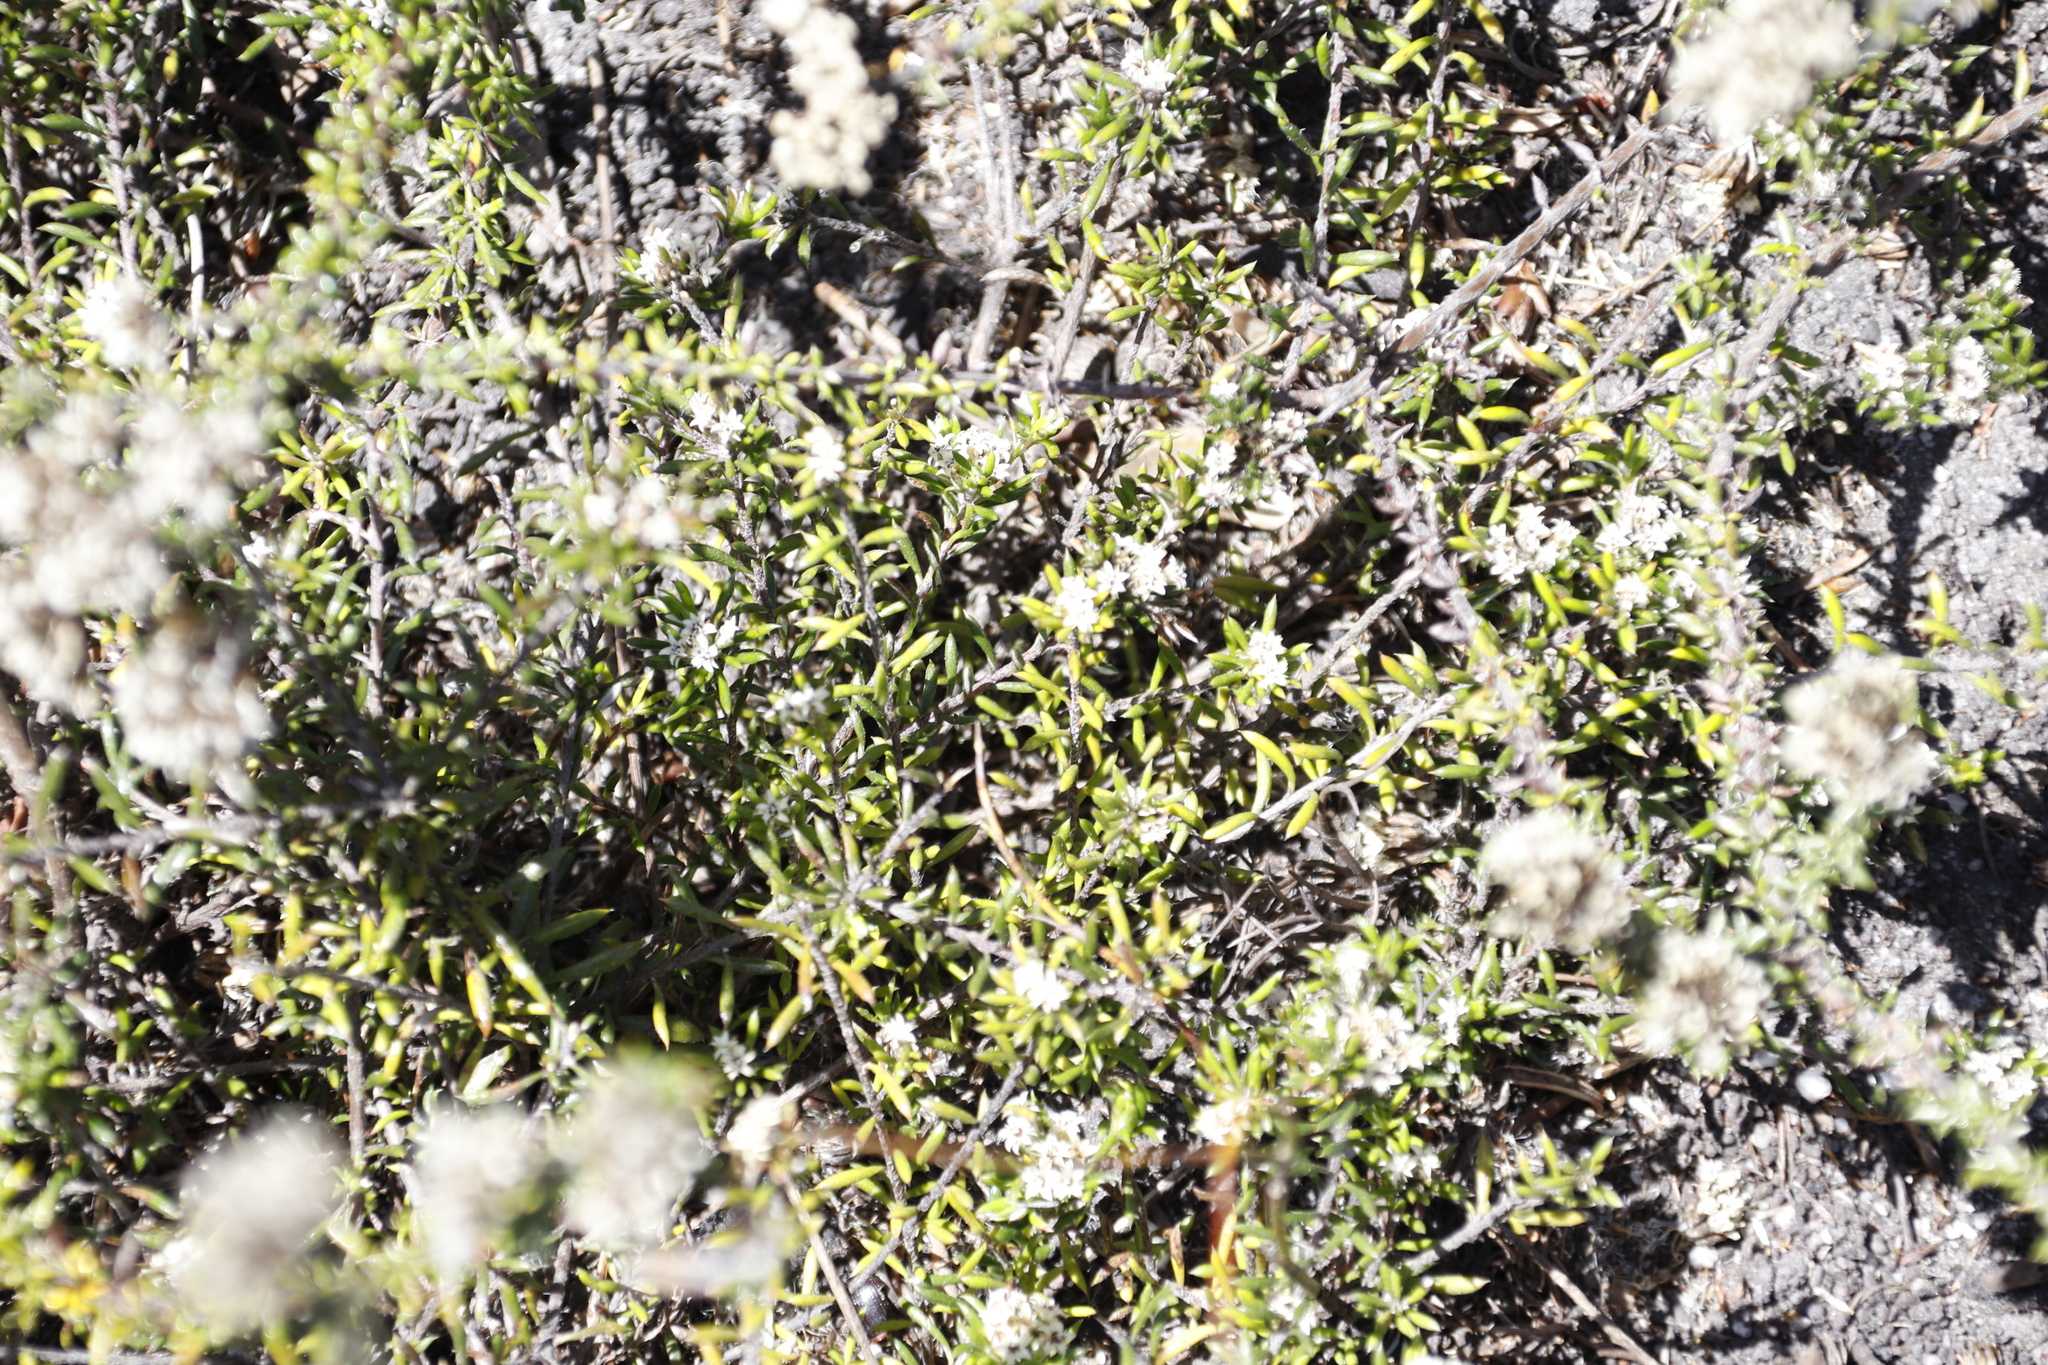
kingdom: Plantae
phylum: Tracheophyta
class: Magnoliopsida
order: Asterales
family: Asteraceae
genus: Metalasia
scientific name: Metalasia humilis
